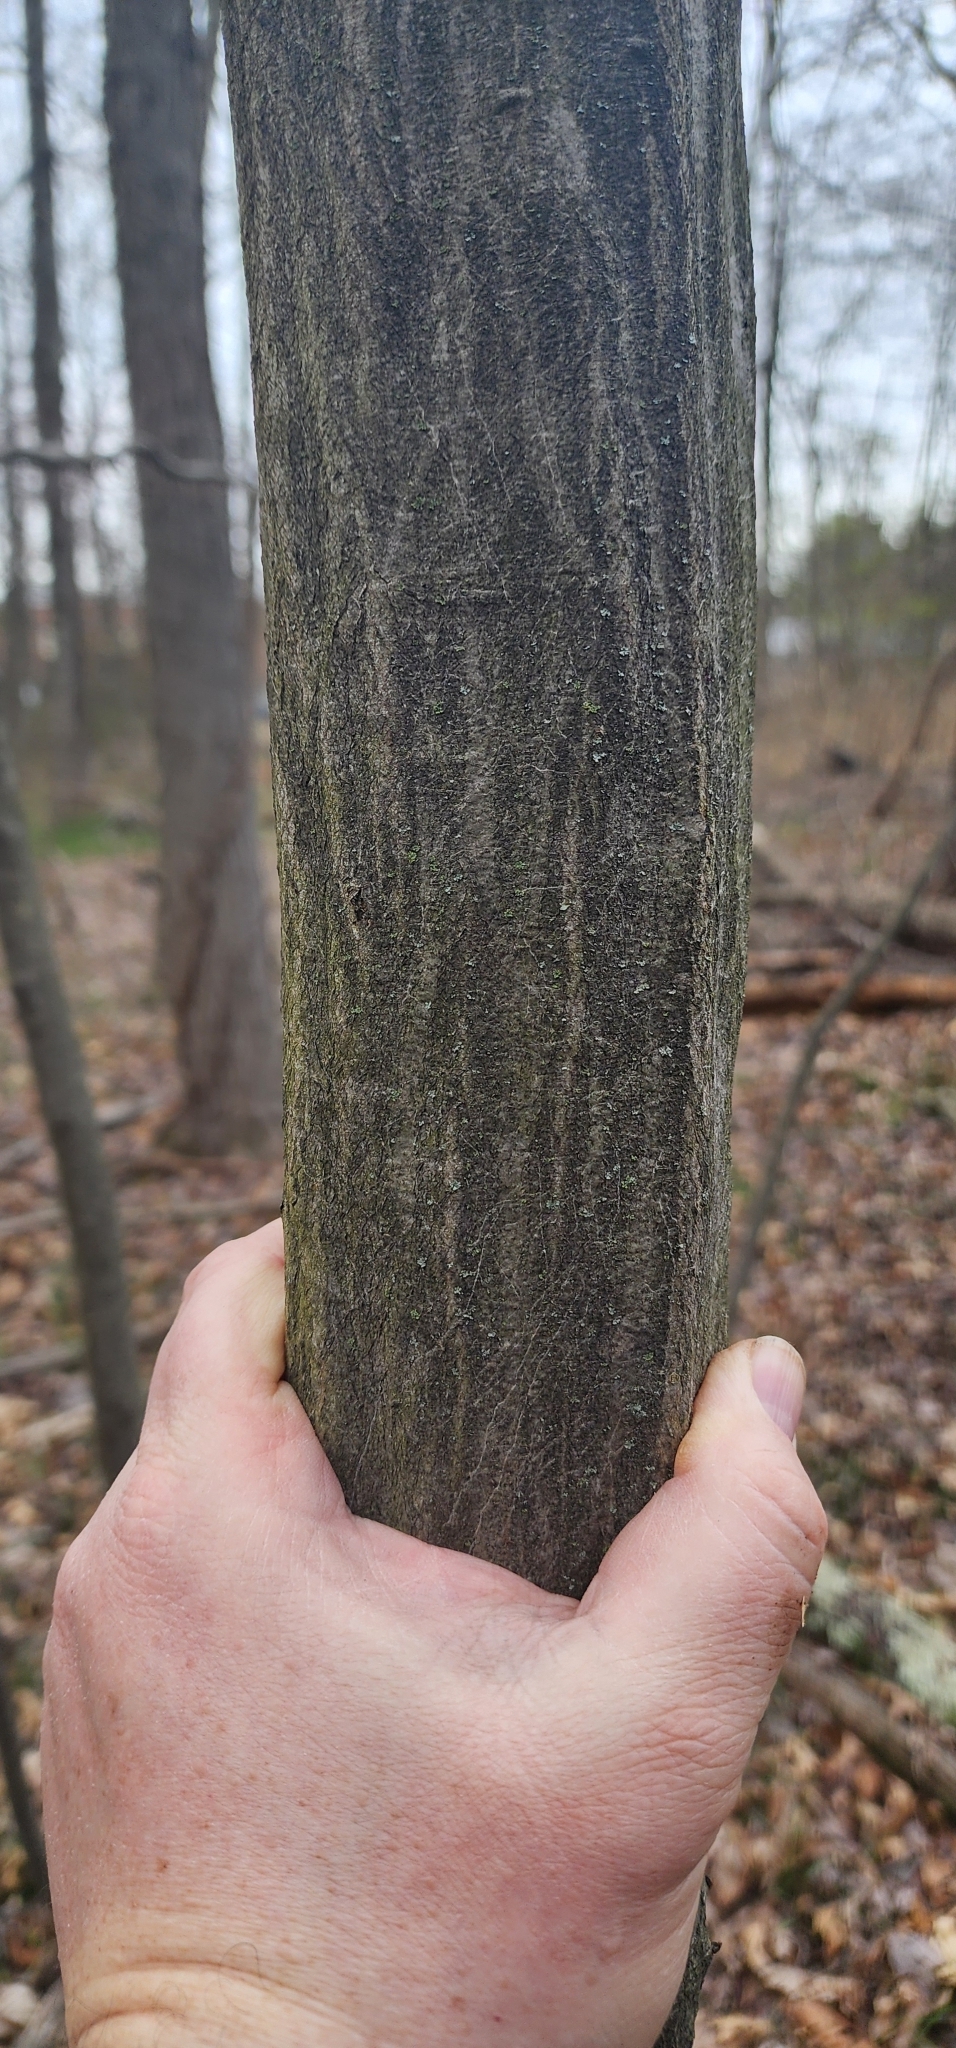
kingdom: Plantae
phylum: Tracheophyta
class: Magnoliopsida
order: Fagales
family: Betulaceae
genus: Carpinus
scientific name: Carpinus caroliniana
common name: American hornbeam
